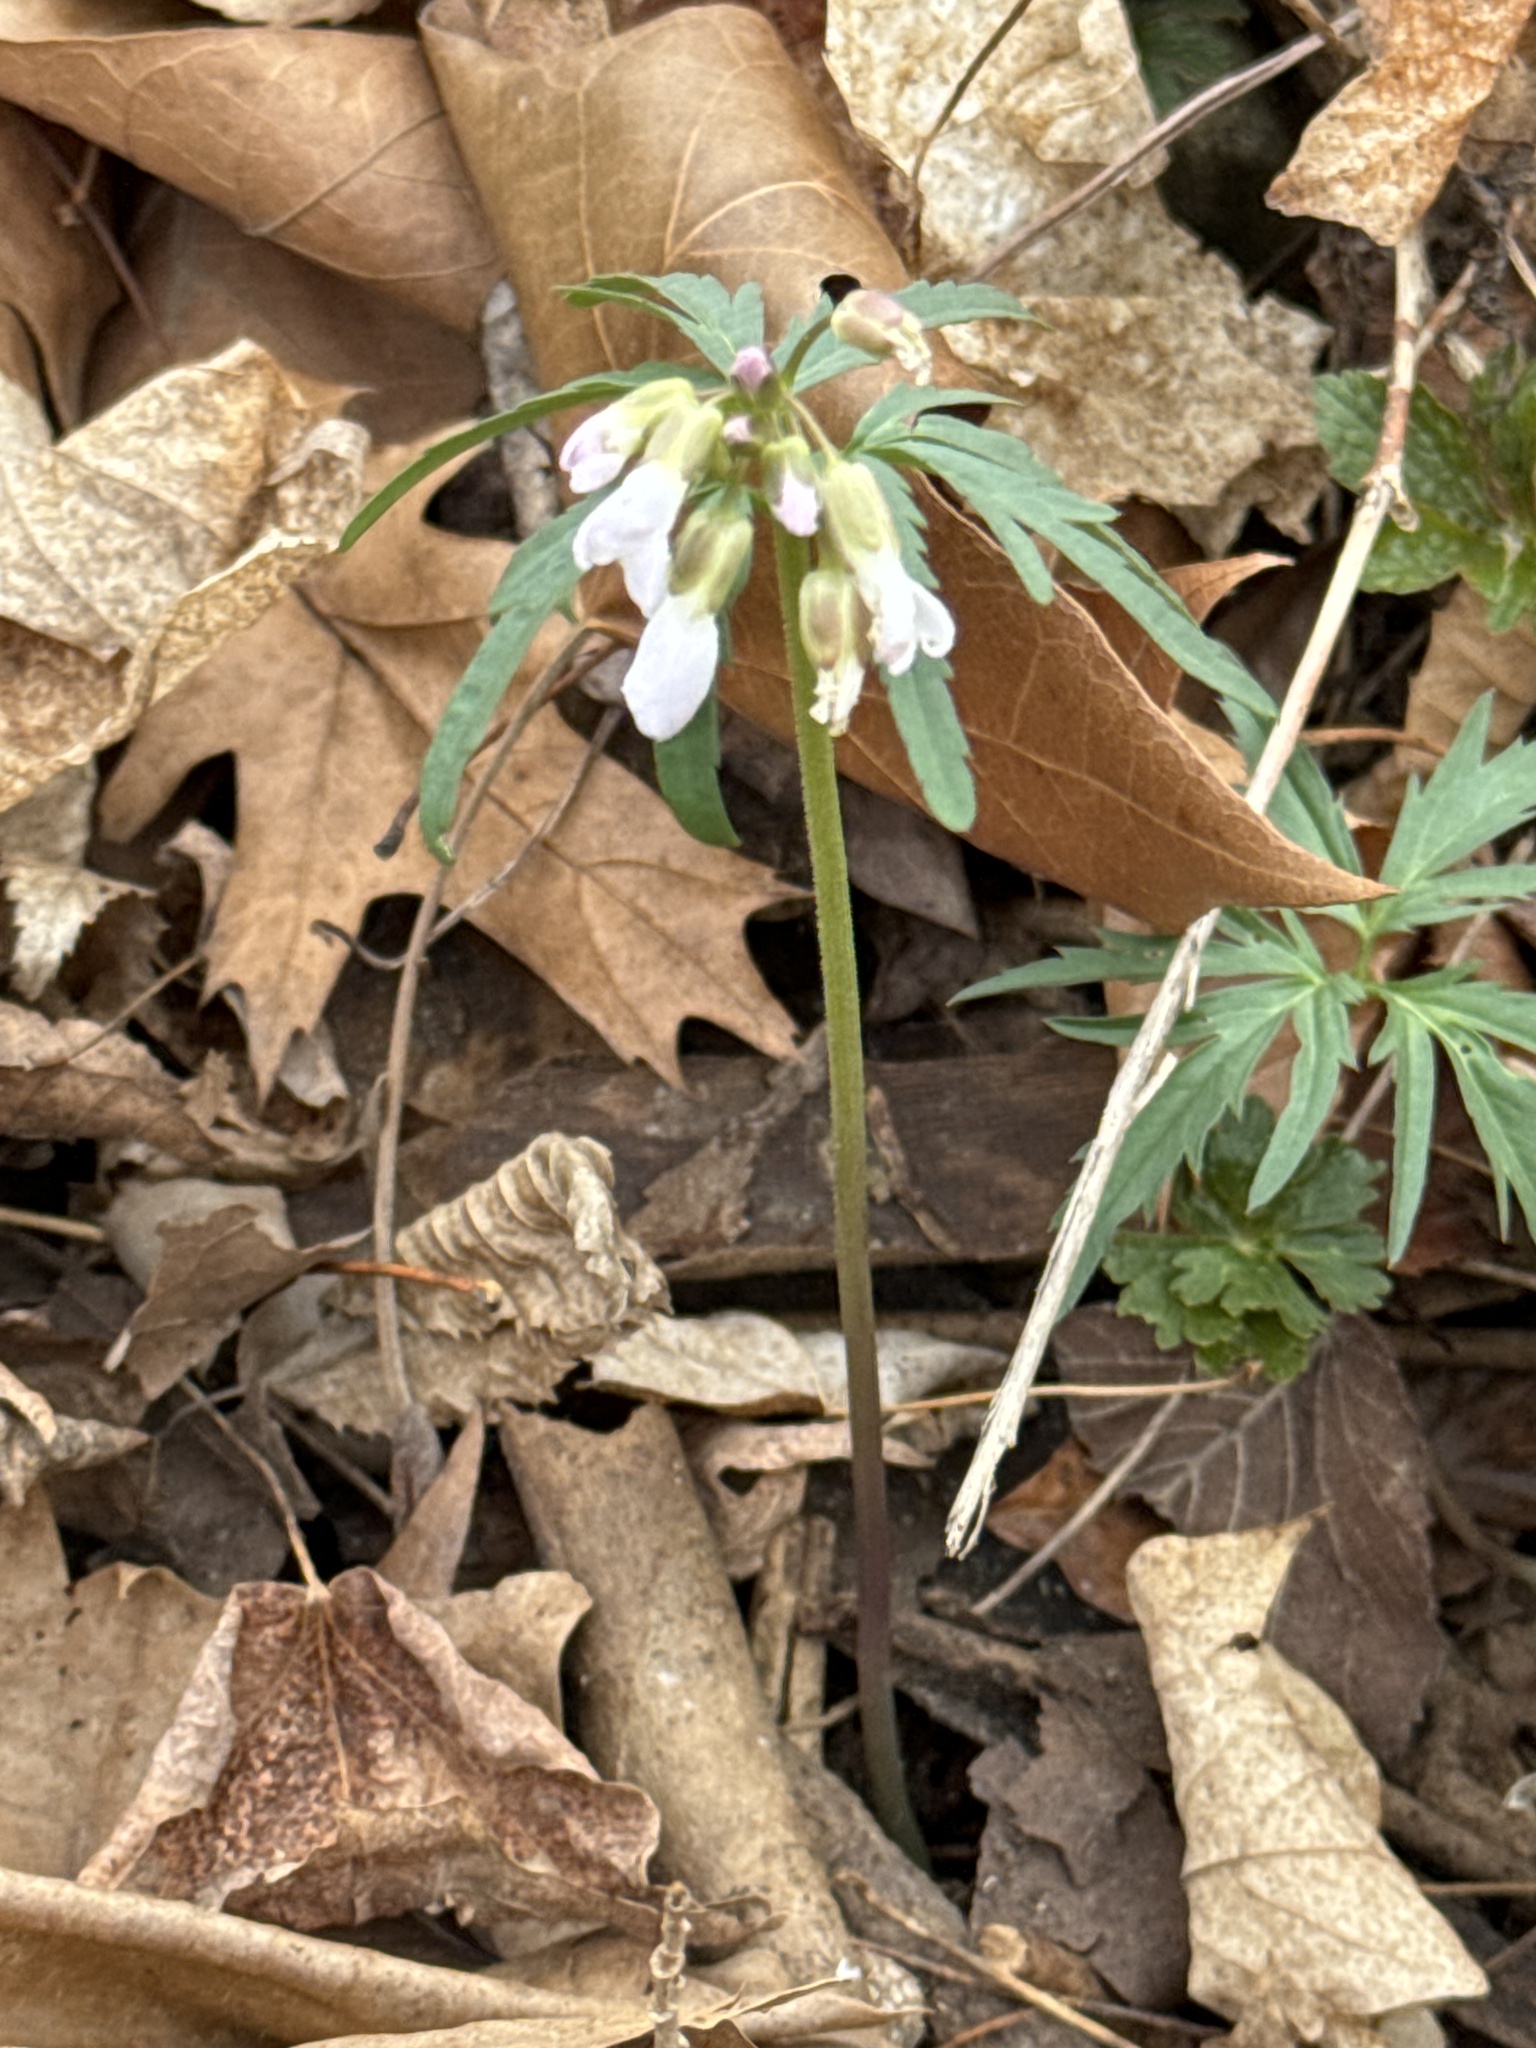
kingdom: Plantae
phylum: Tracheophyta
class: Magnoliopsida
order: Brassicales
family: Brassicaceae
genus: Cardamine
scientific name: Cardamine concatenata
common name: Cut-leaf toothcup
